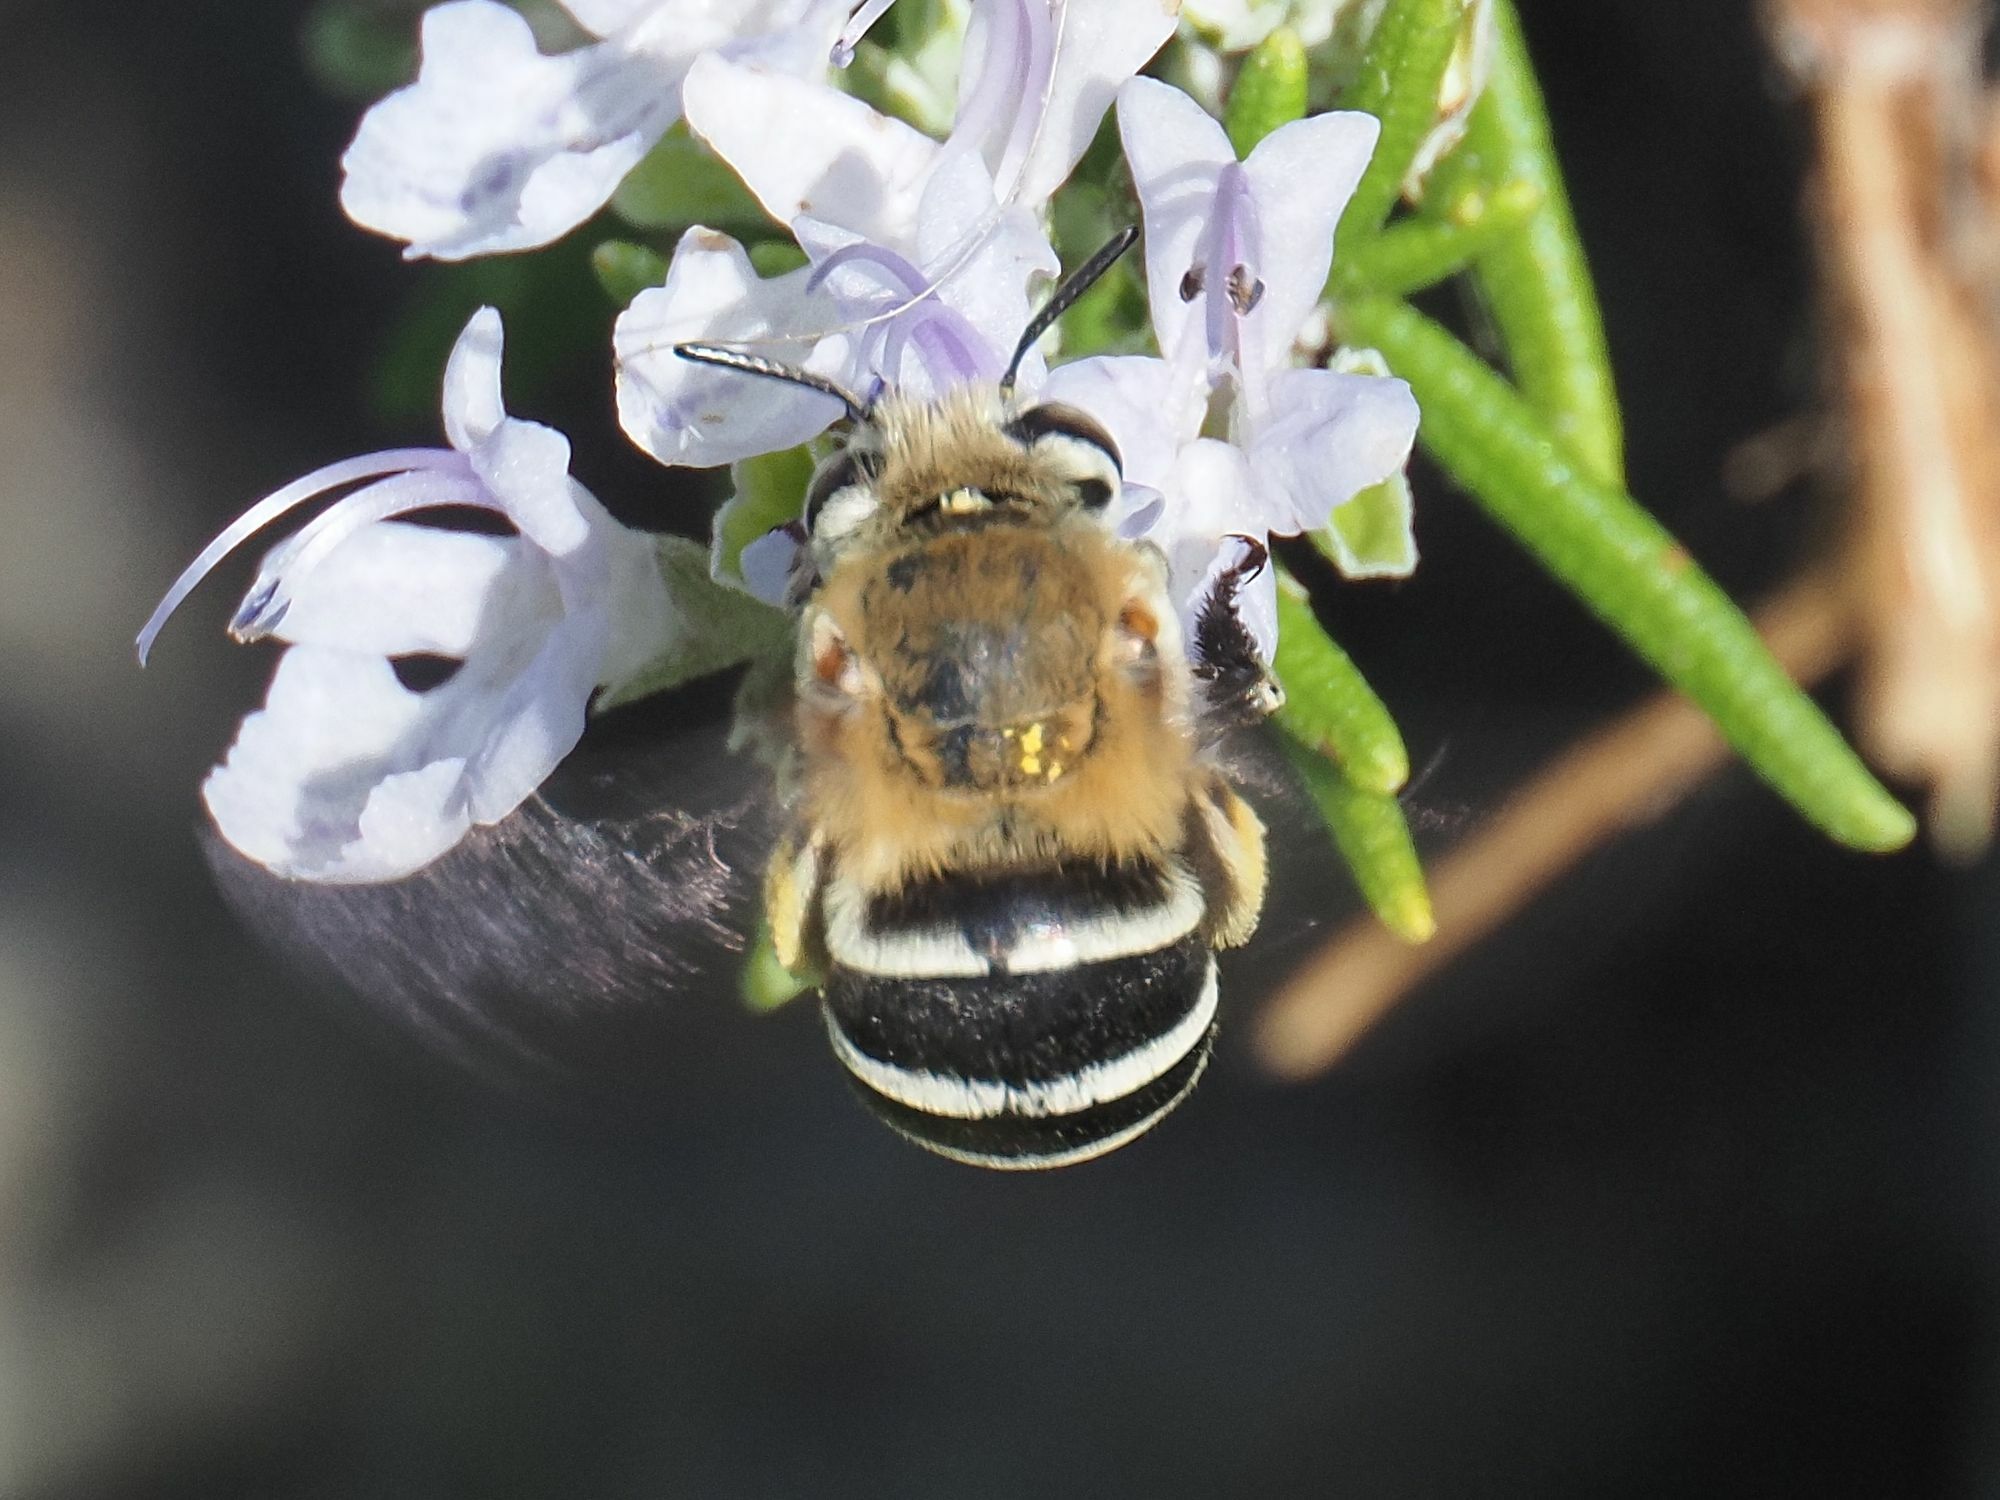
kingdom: Animalia
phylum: Arthropoda
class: Insecta
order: Hymenoptera
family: Apidae
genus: Amegilla
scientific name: Amegilla quadrifasciata
